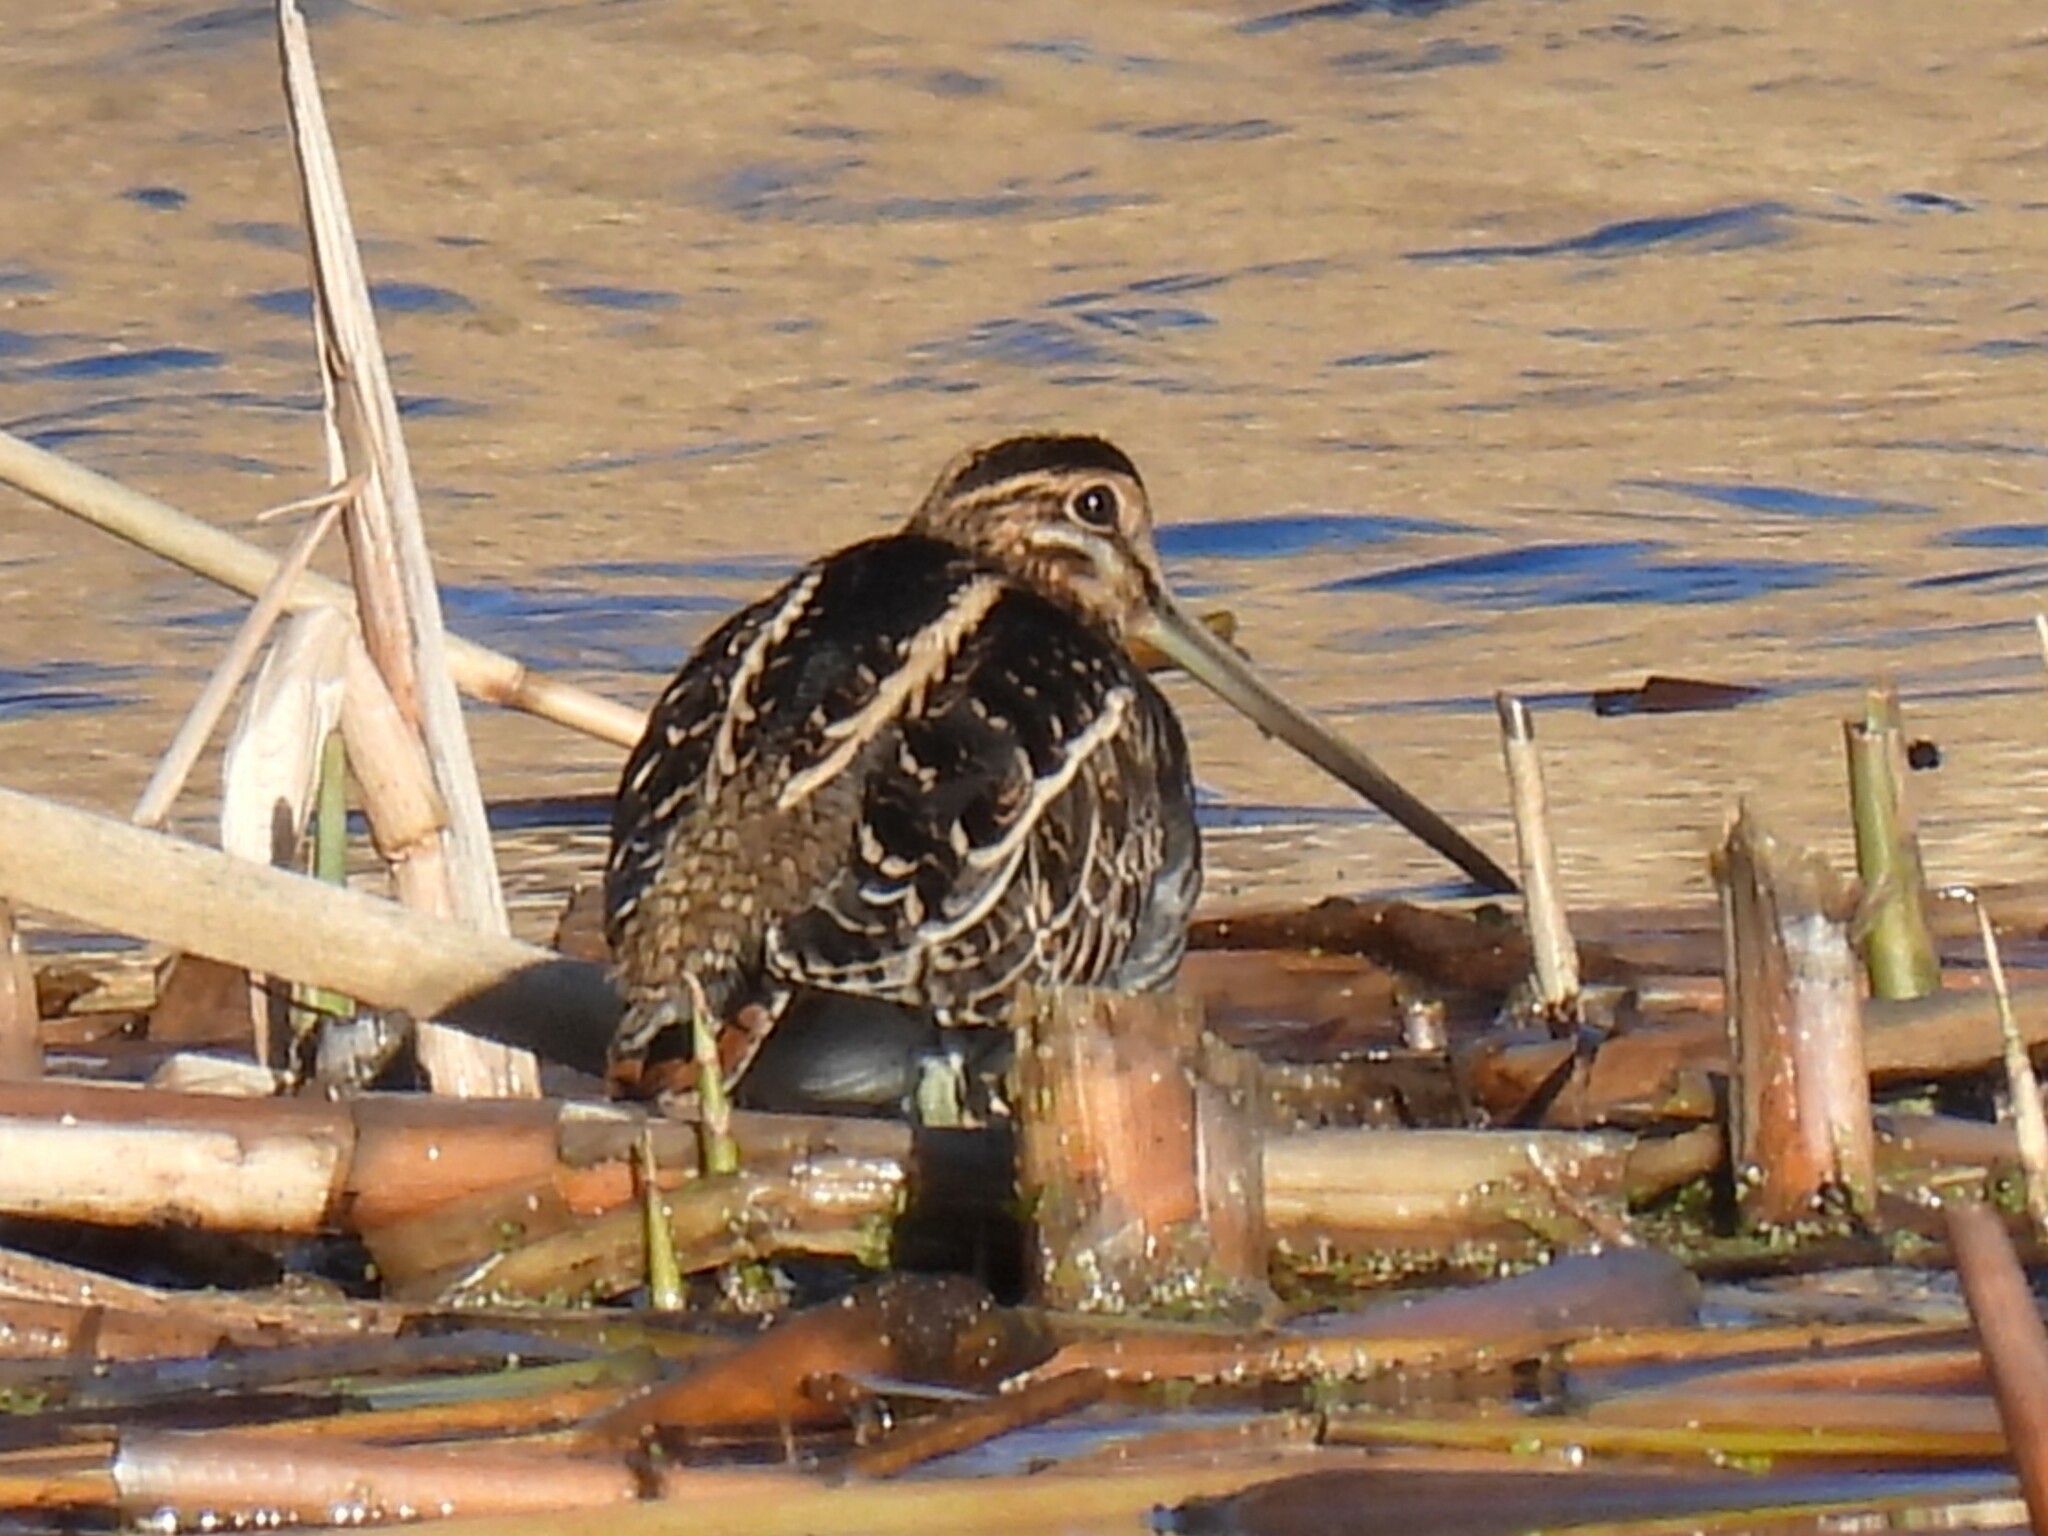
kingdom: Animalia
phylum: Chordata
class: Aves
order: Charadriiformes
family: Scolopacidae
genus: Gallinago
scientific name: Gallinago gallinago
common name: Common snipe
